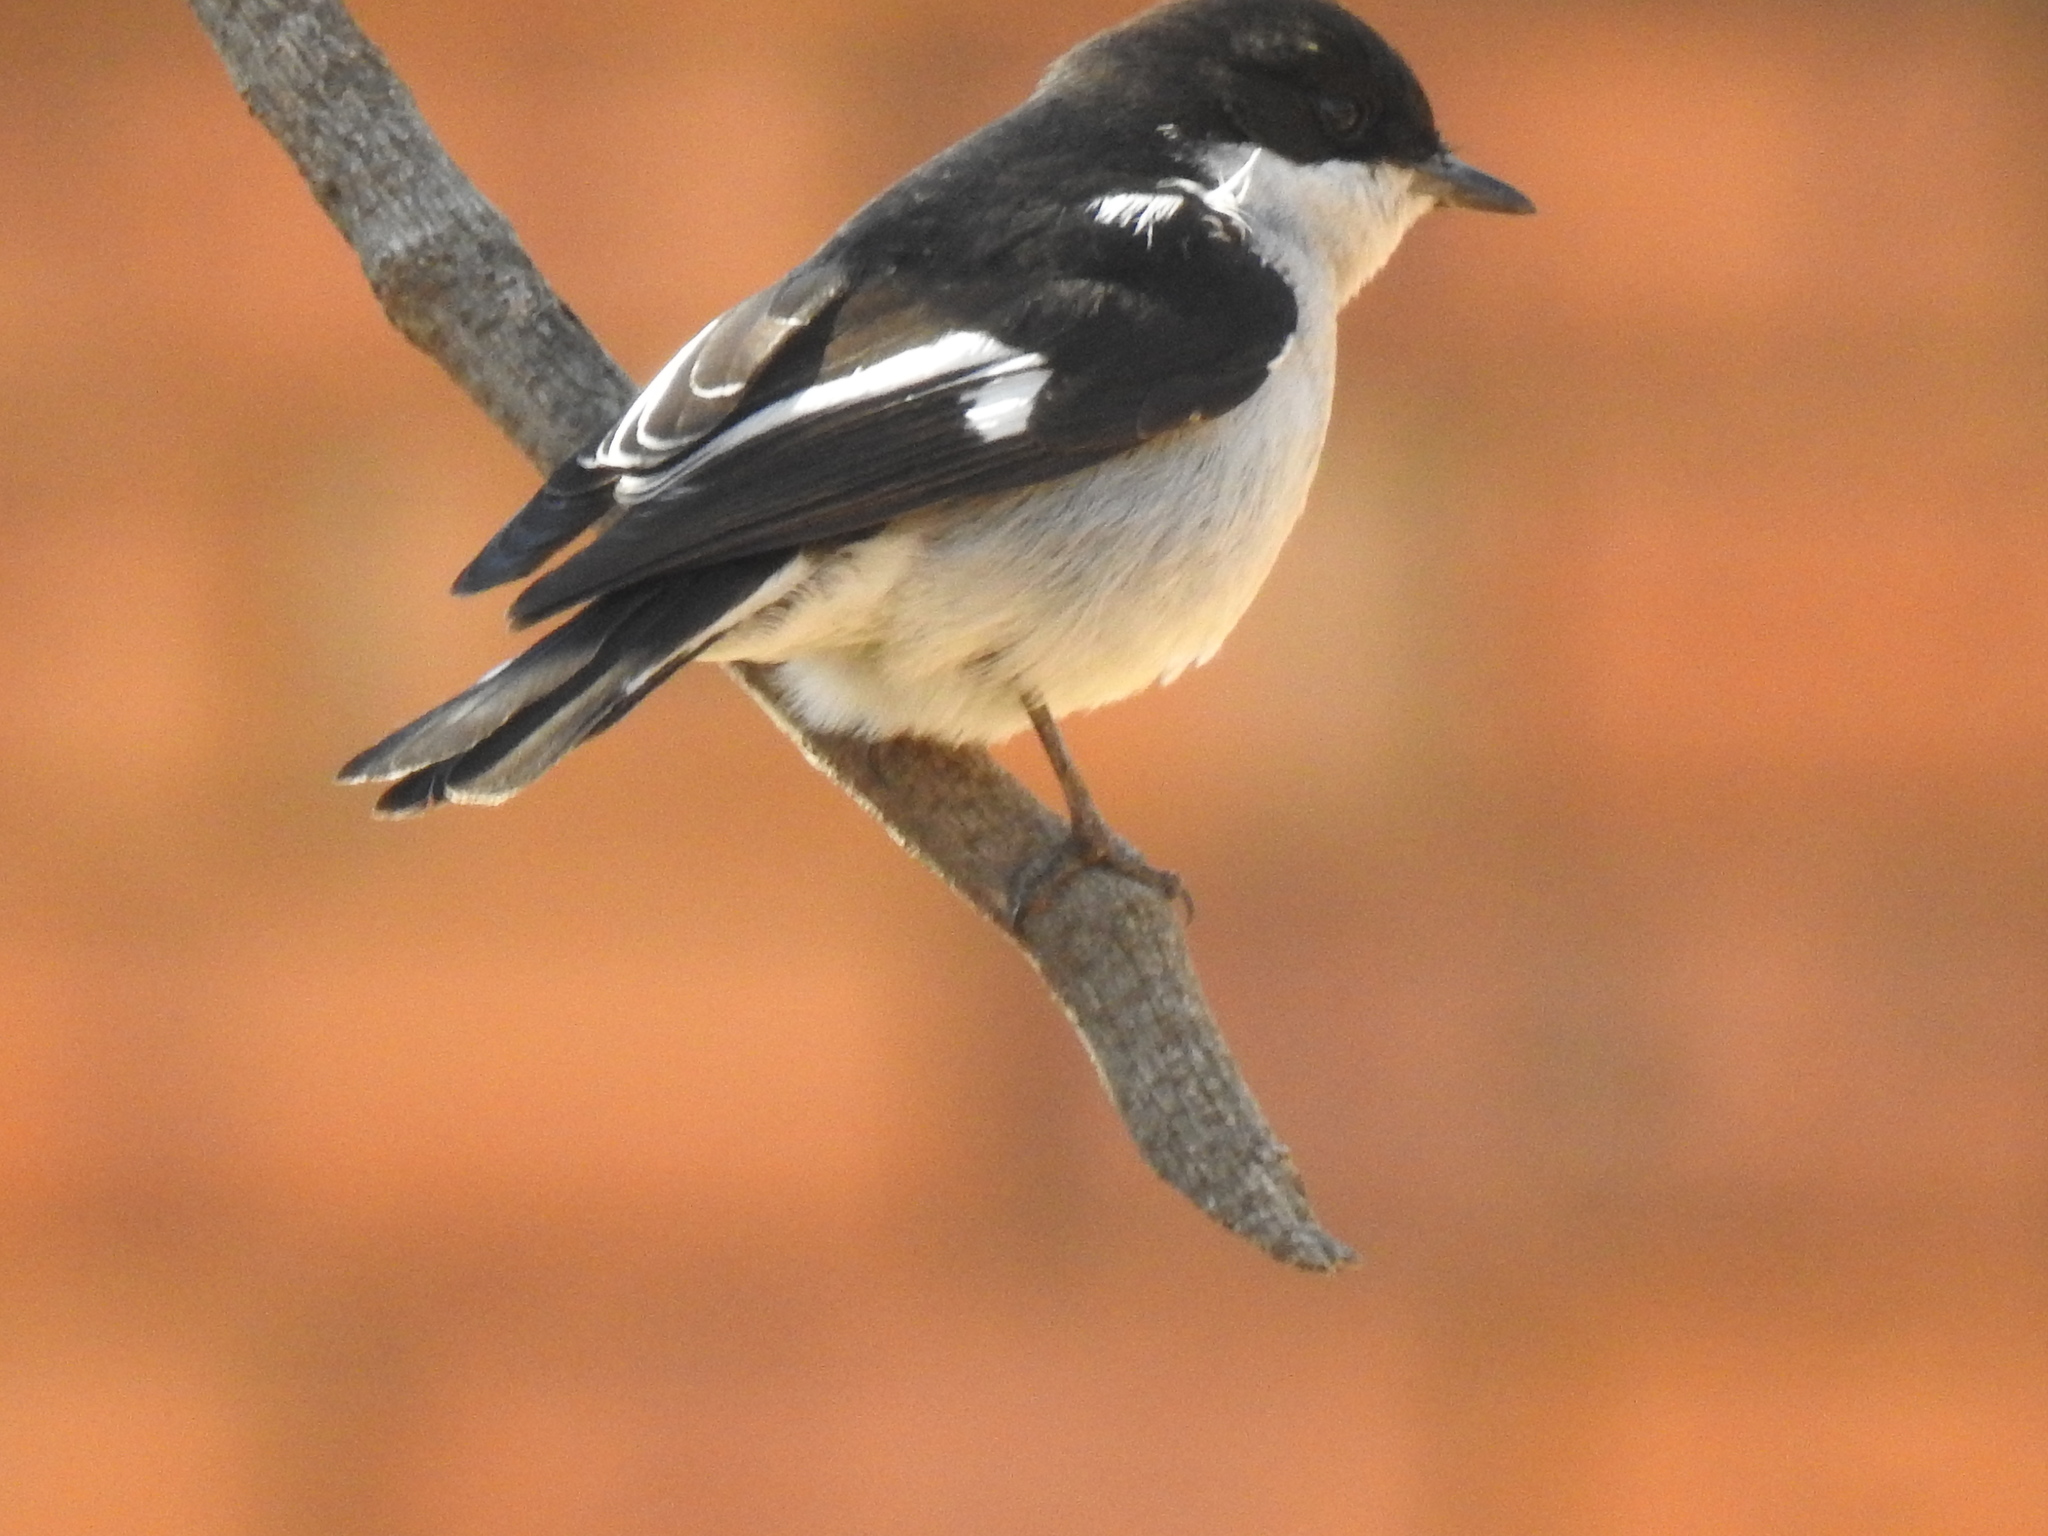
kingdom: Animalia
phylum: Chordata
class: Aves
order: Passeriformes
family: Muscicapidae
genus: Sigelus
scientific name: Sigelus silens
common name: Fiscal flycatcher
